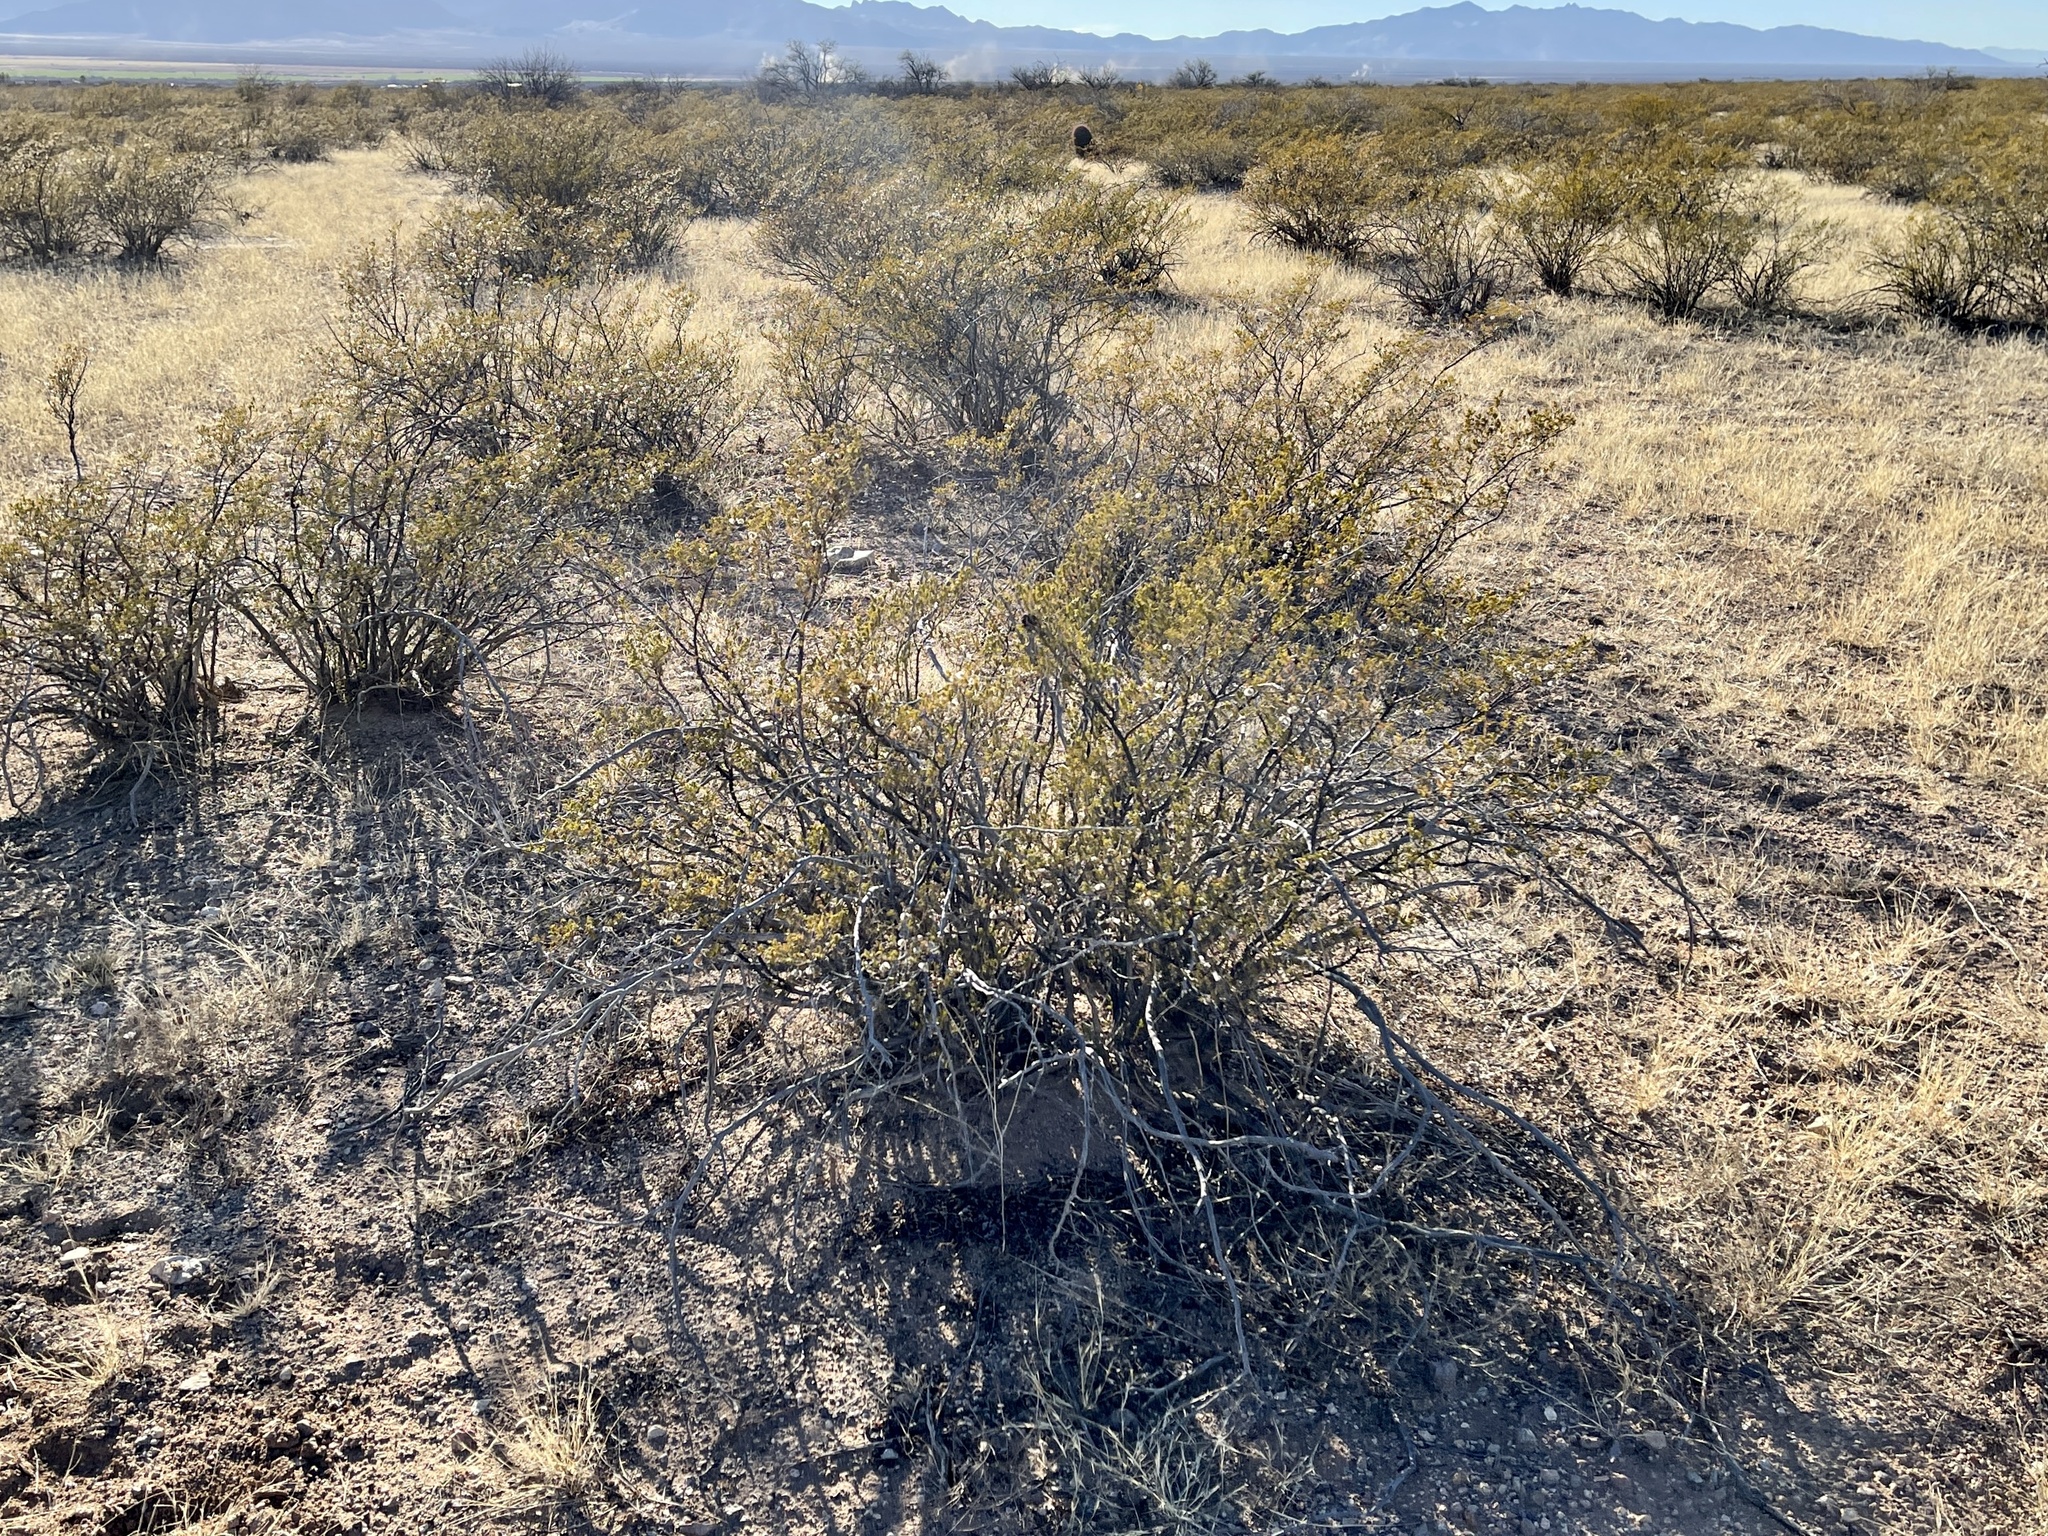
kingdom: Plantae
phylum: Tracheophyta
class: Magnoliopsida
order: Zygophyllales
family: Zygophyllaceae
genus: Larrea
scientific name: Larrea tridentata
